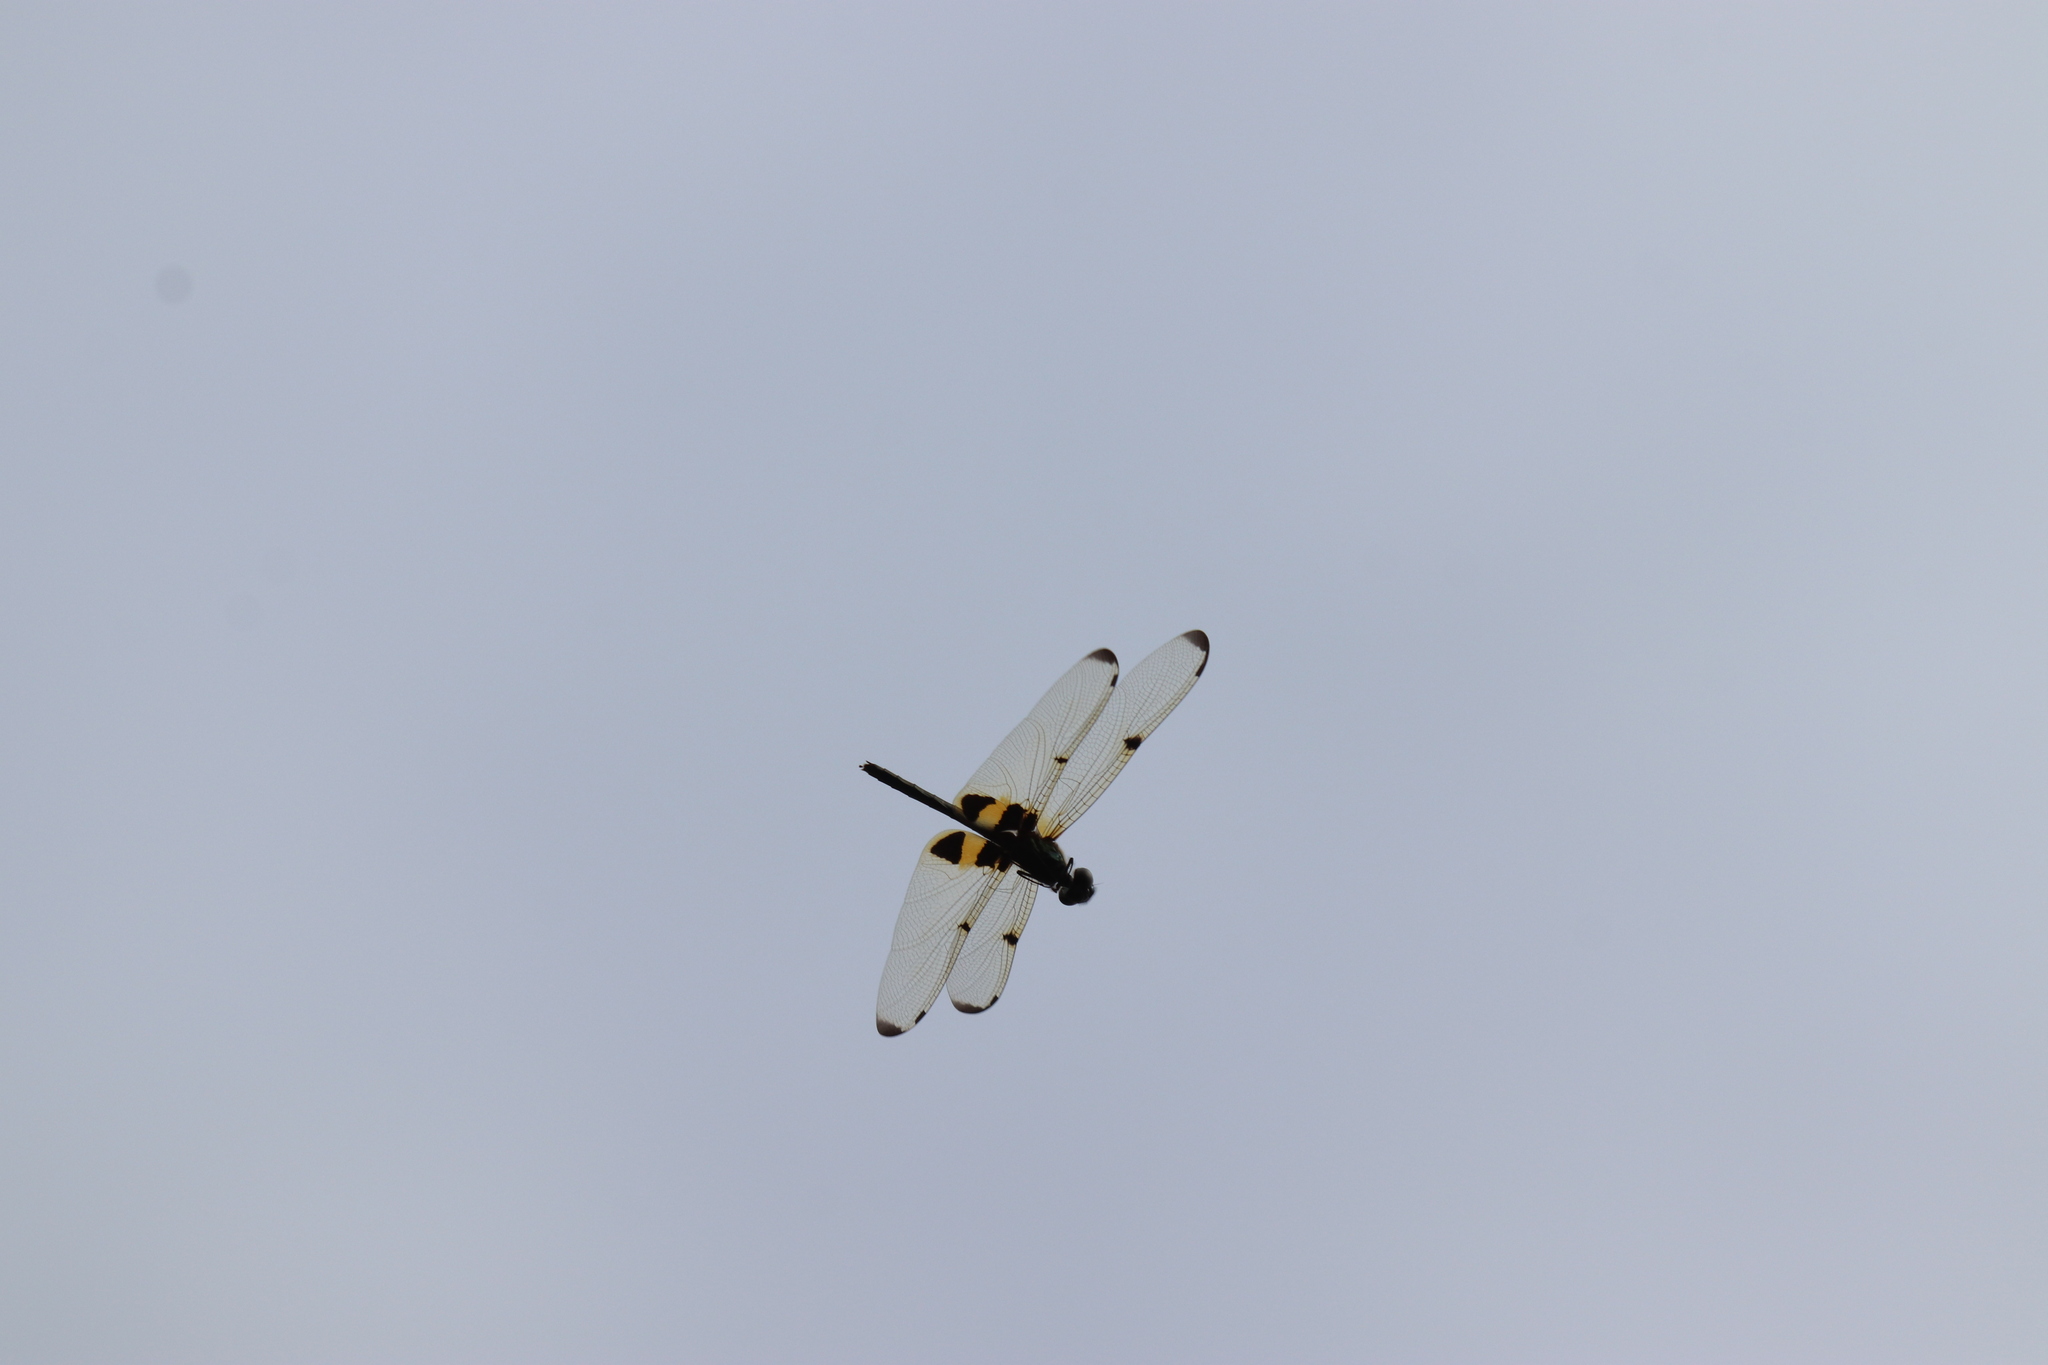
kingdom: Animalia
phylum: Arthropoda
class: Insecta
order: Odonata
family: Libellulidae
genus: Rhyothemis
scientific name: Rhyothemis phyllis
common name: Yellow-barred flutterer
